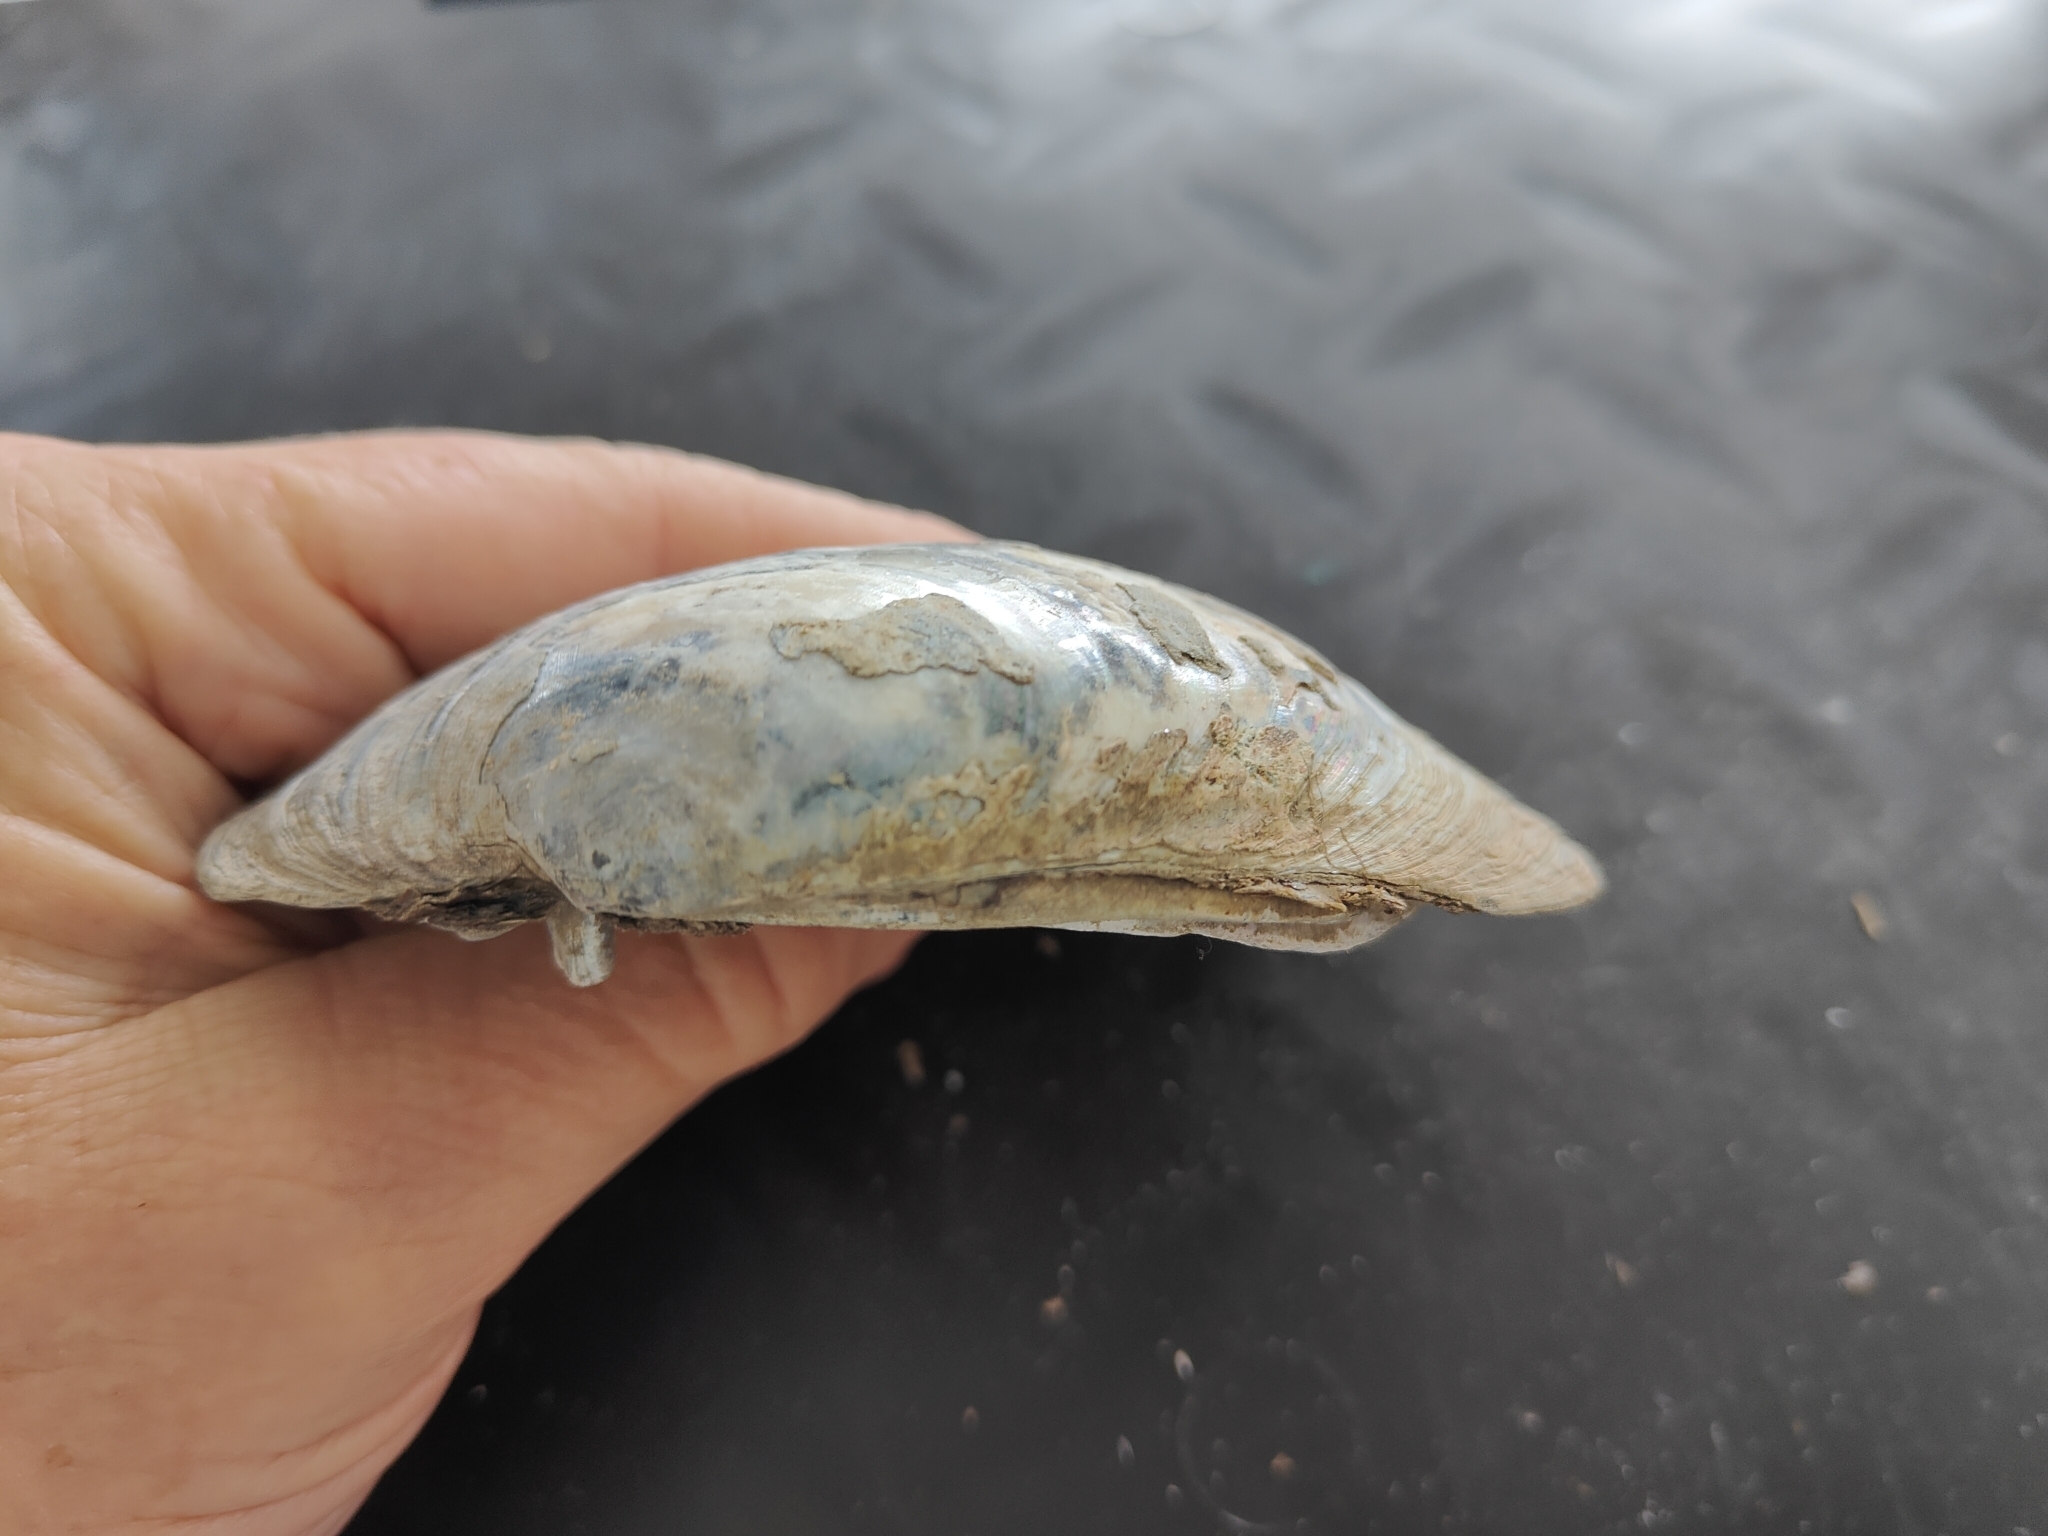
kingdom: Animalia
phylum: Mollusca
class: Bivalvia
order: Unionida
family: Unionidae
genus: Lampsilis
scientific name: Lampsilis cardium
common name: Plain pocketbook
